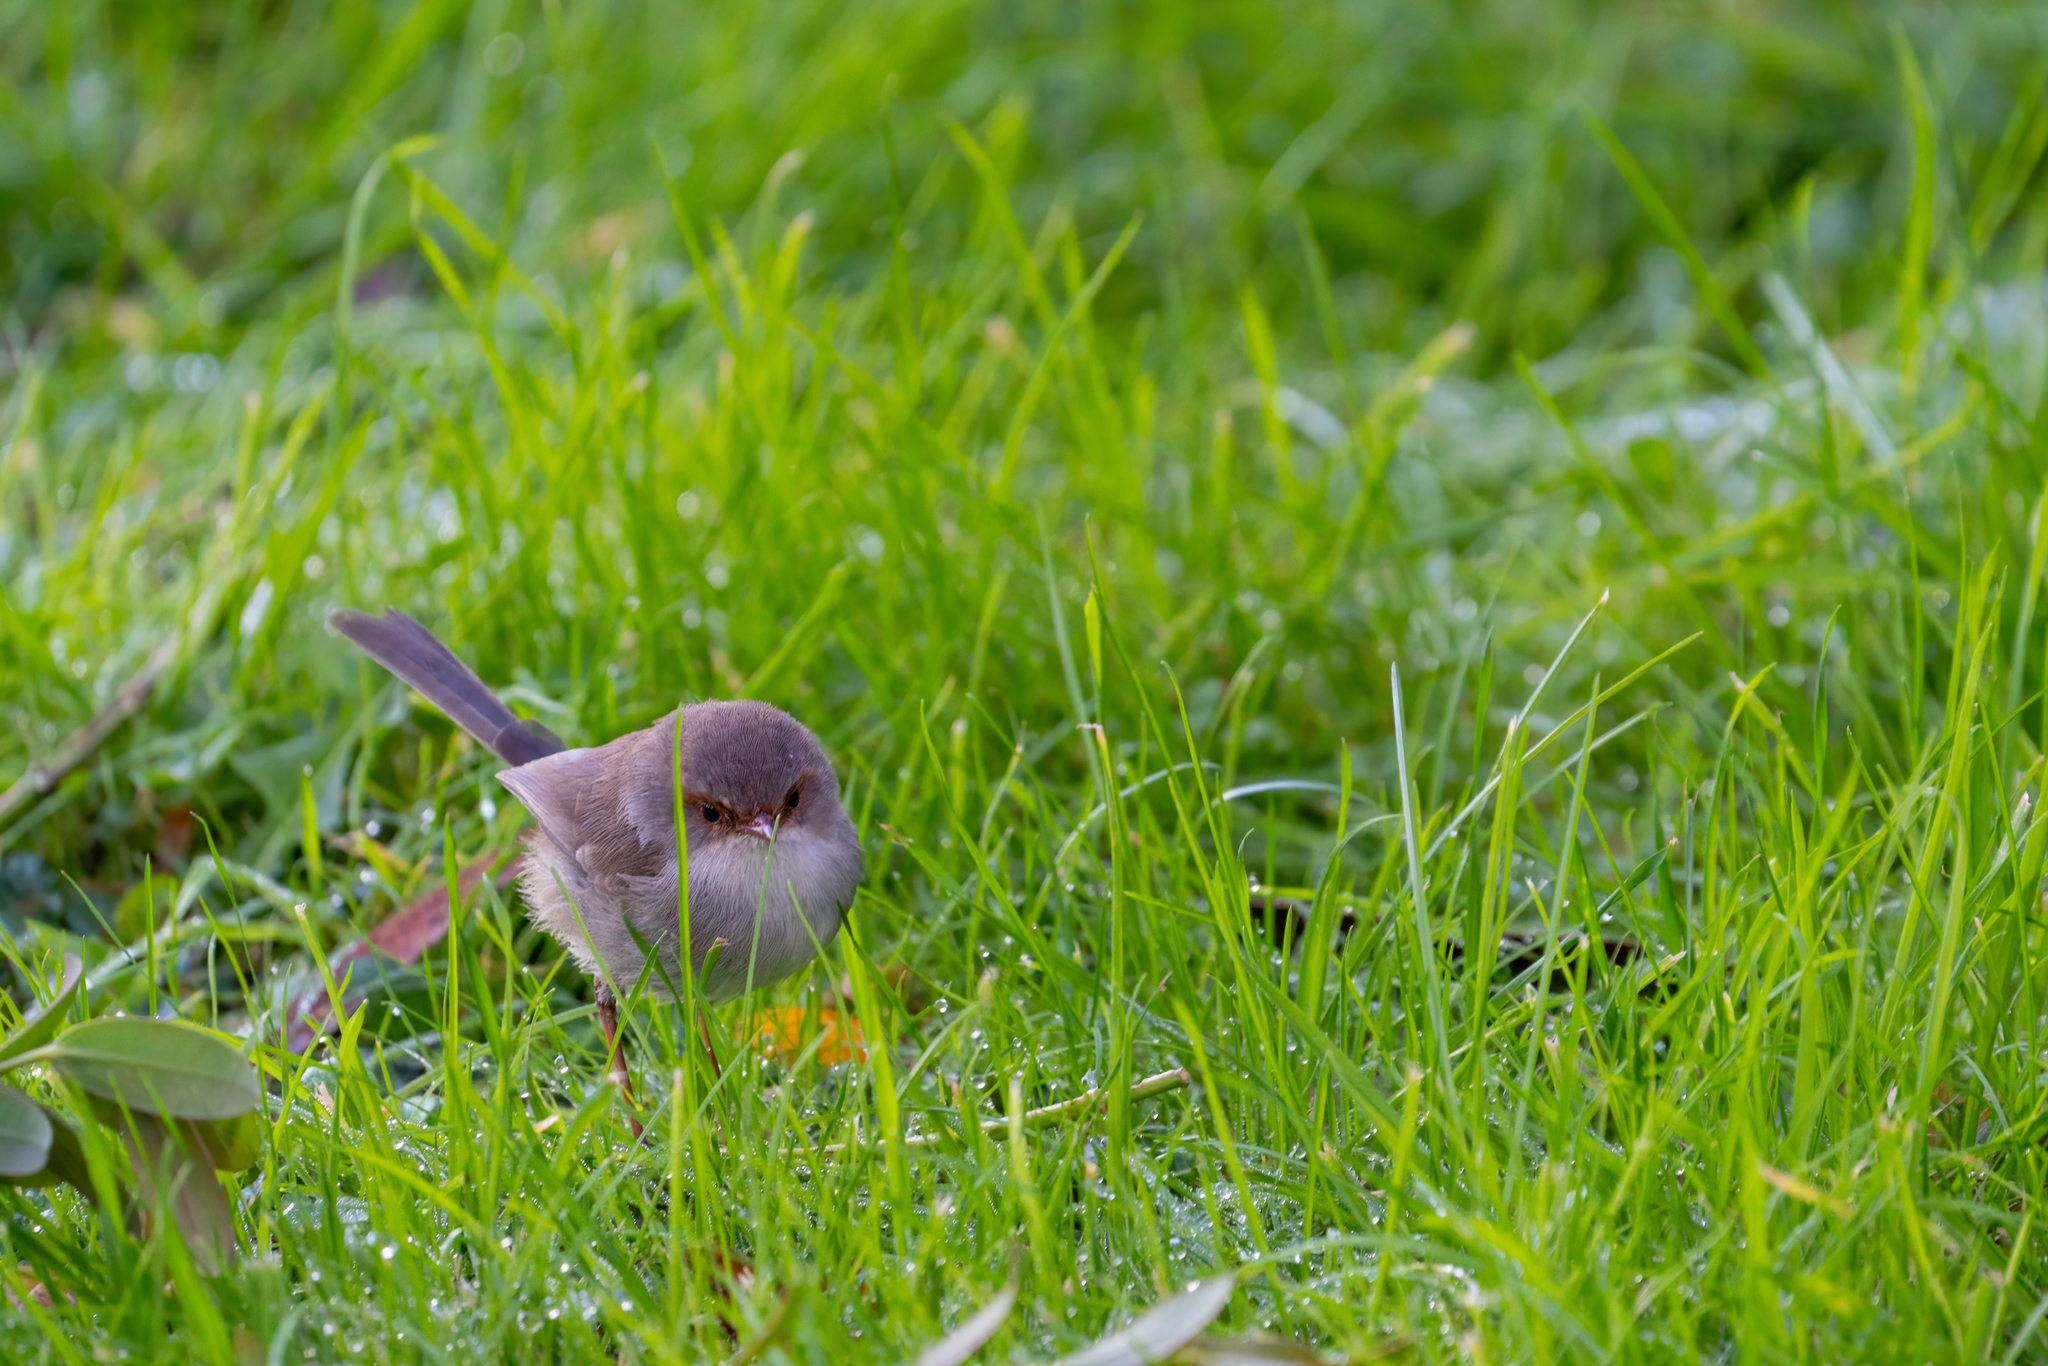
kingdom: Animalia
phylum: Chordata
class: Aves
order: Passeriformes
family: Maluridae
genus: Malurus
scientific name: Malurus cyaneus
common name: Superb fairywren
